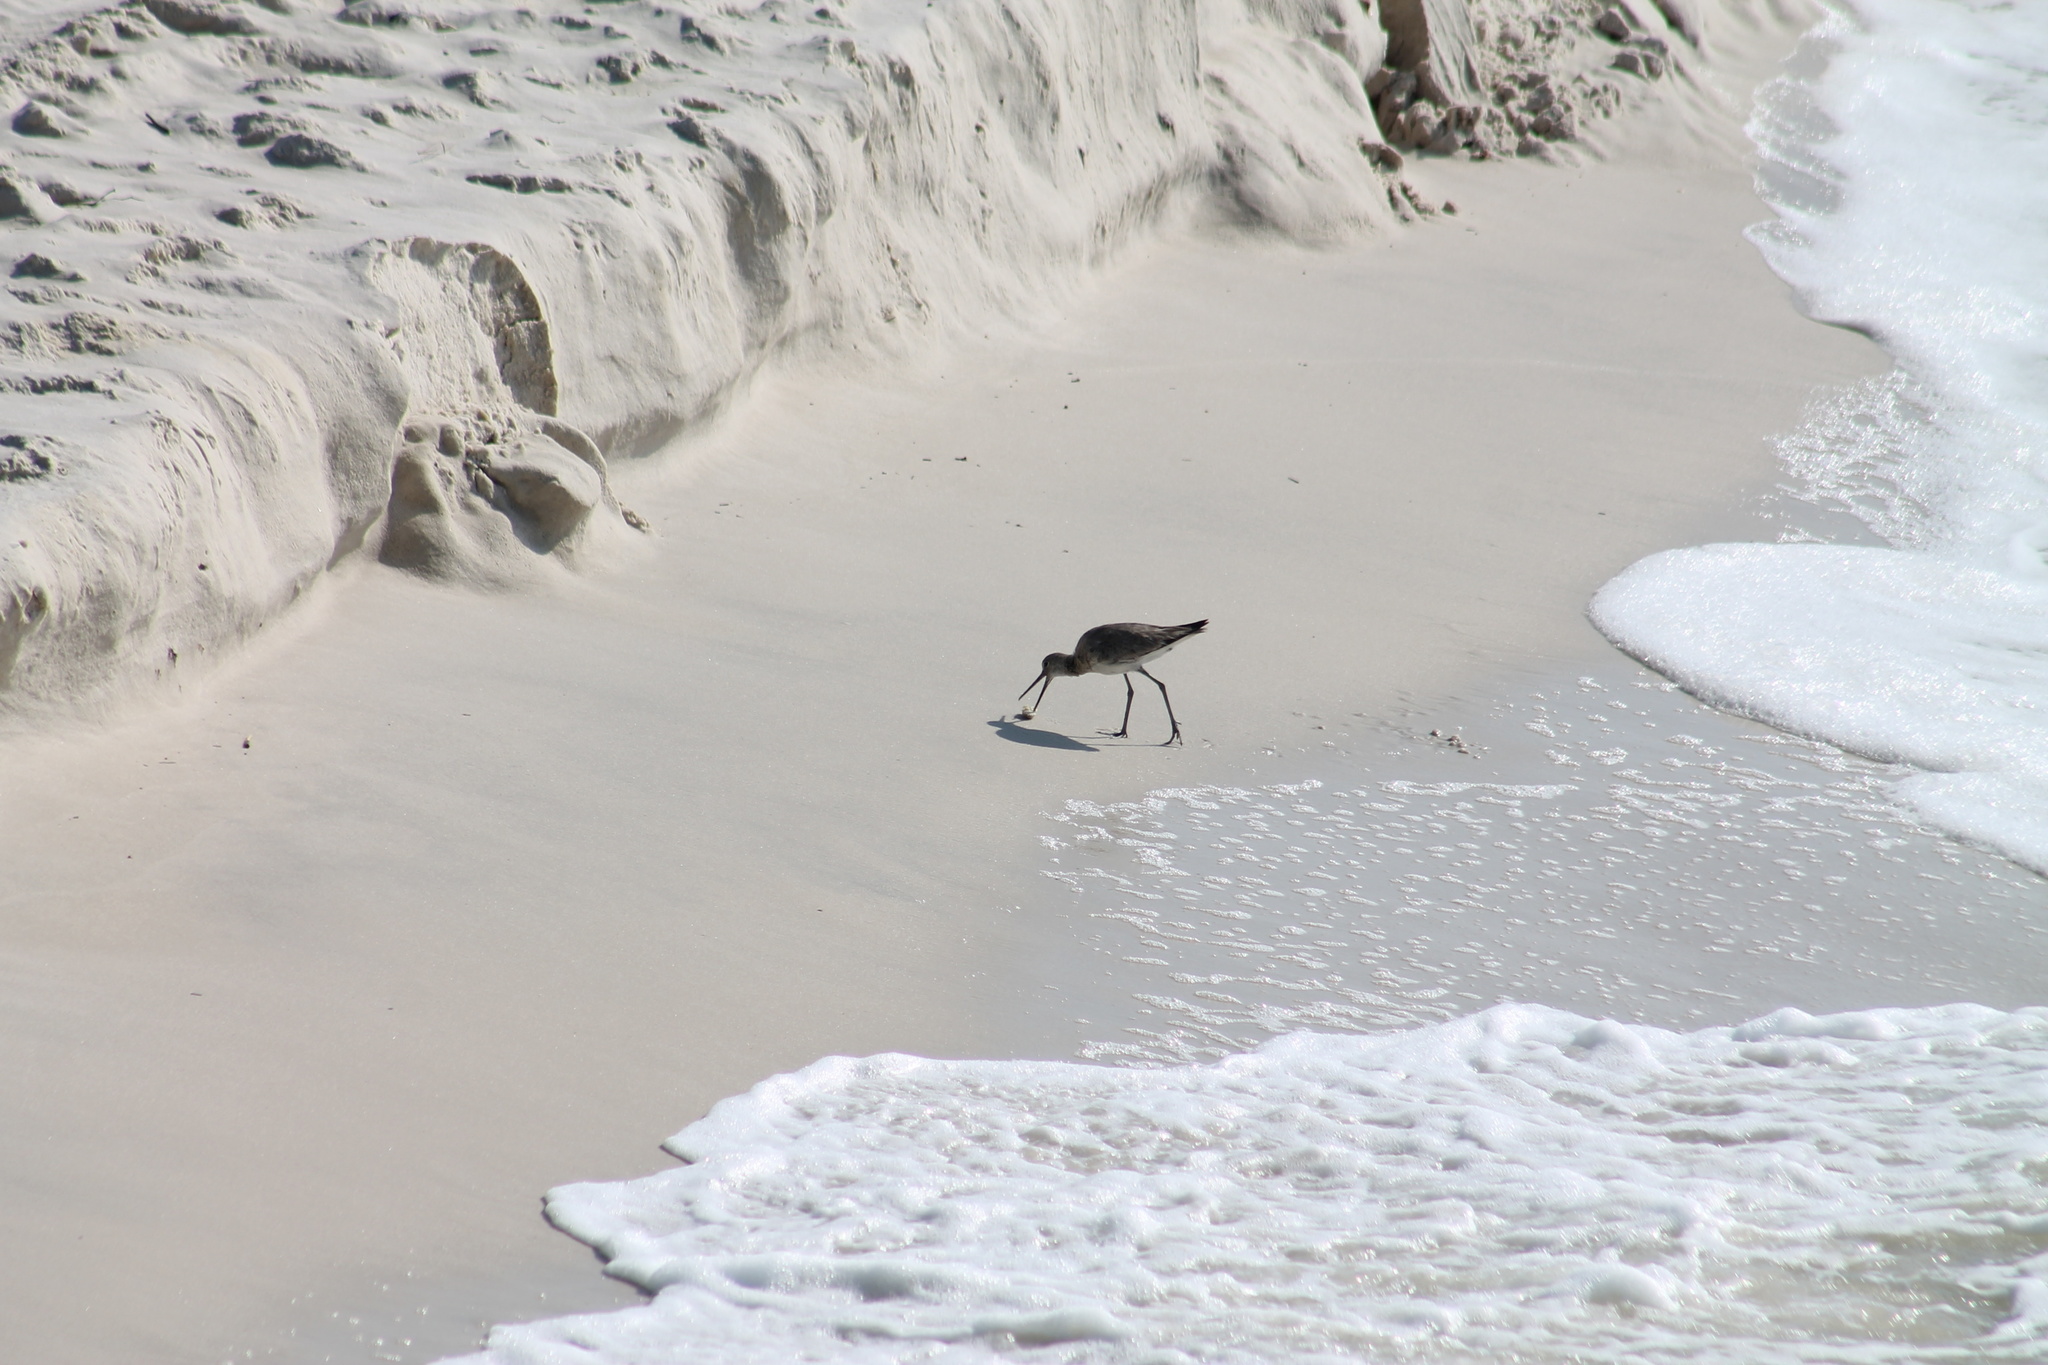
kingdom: Animalia
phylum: Chordata
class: Aves
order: Charadriiformes
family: Scolopacidae
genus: Tringa
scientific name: Tringa semipalmata
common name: Willet
